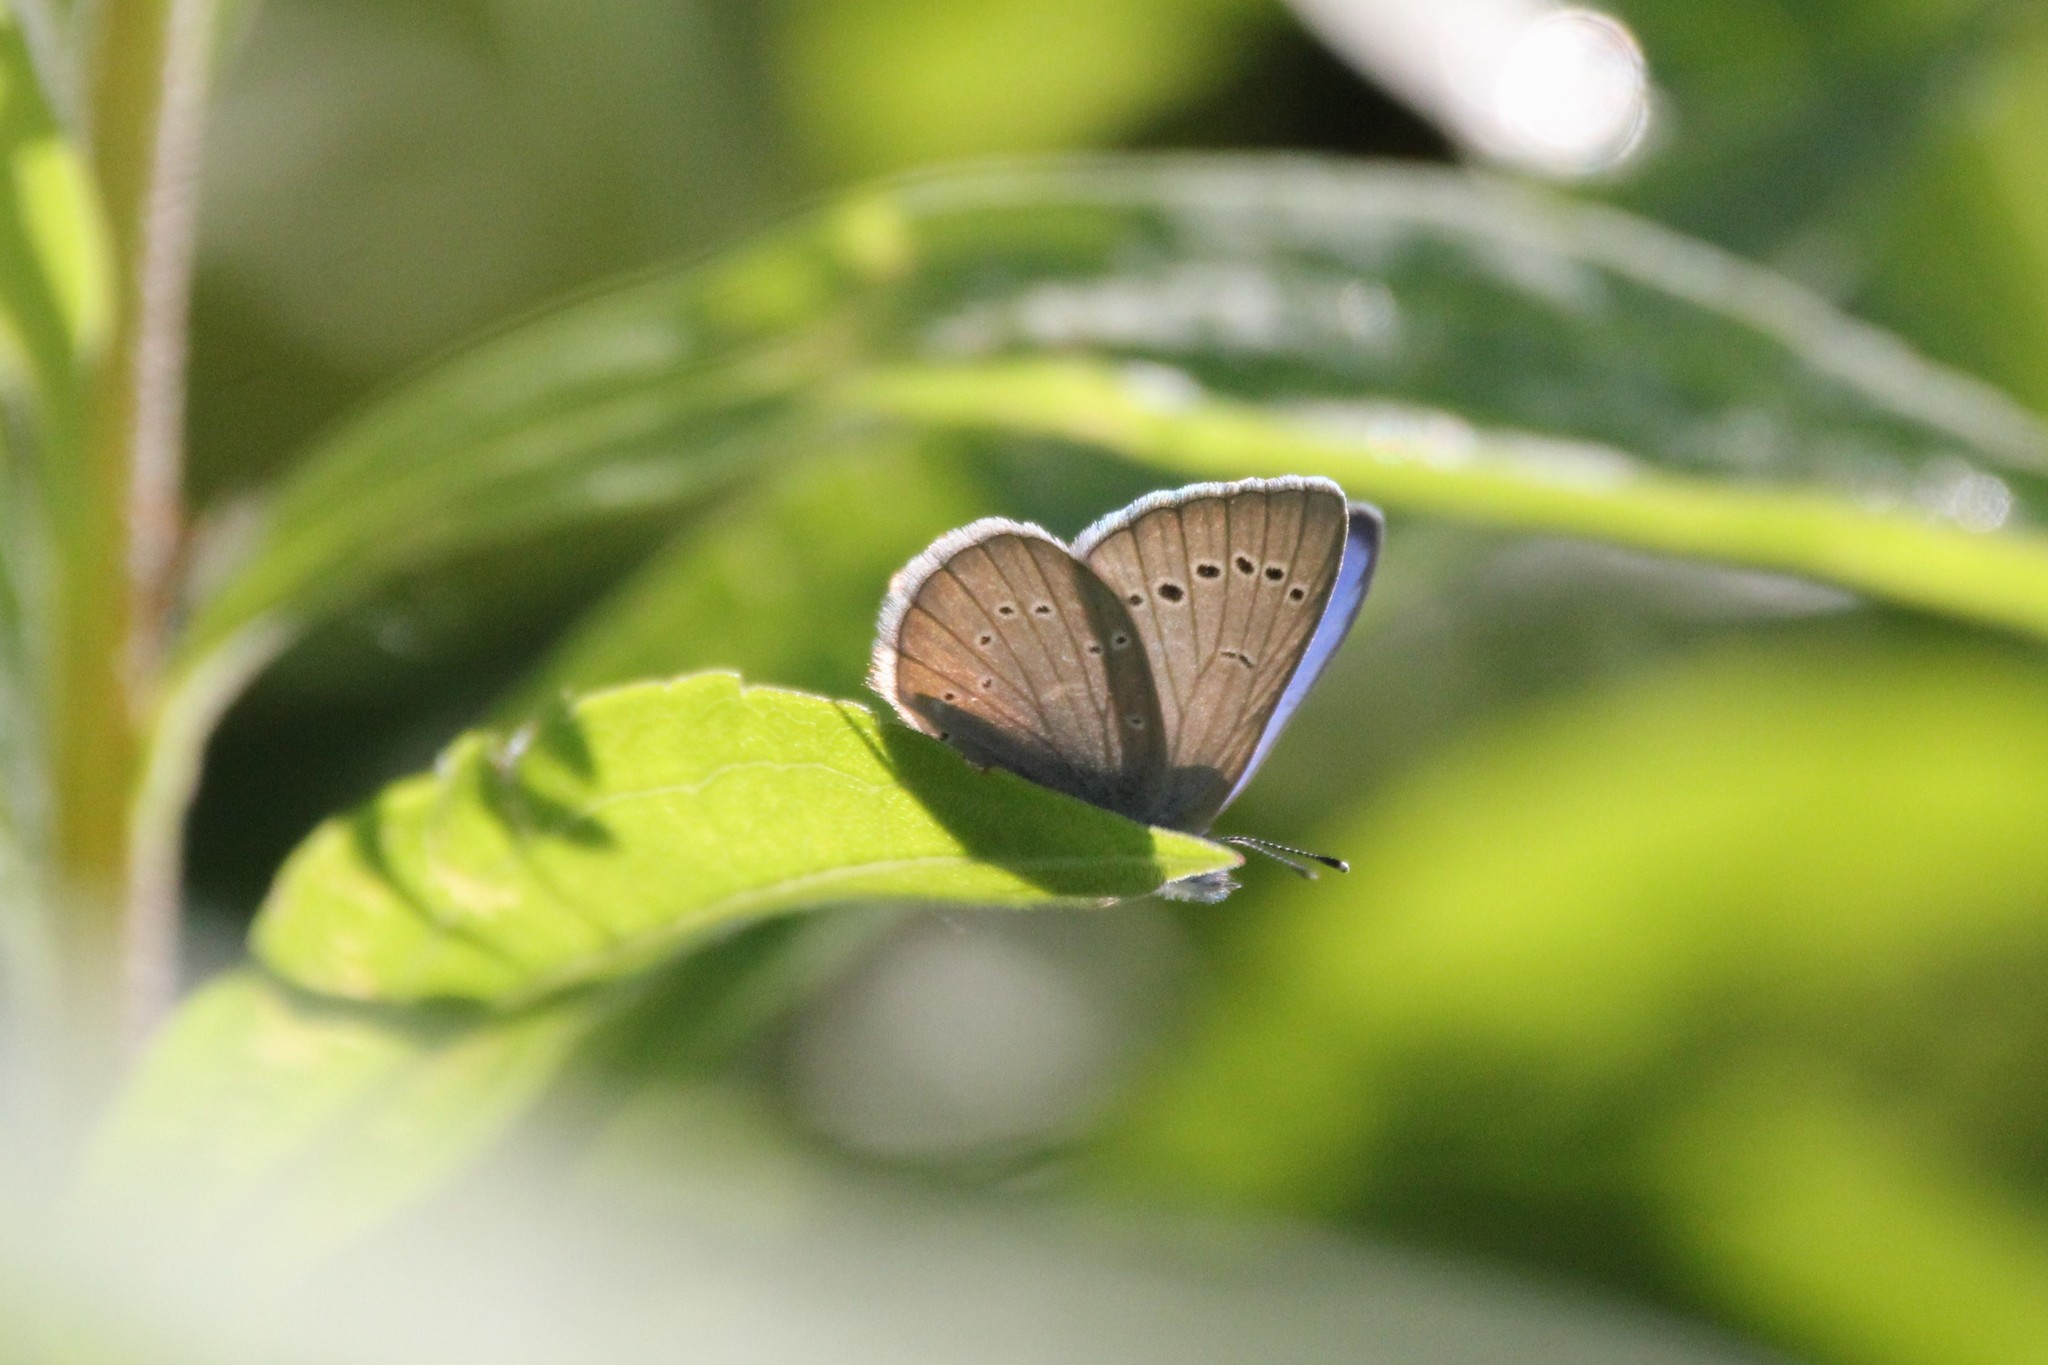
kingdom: Animalia
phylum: Arthropoda
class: Insecta
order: Lepidoptera
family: Lycaenidae
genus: Glaucopsyche
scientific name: Glaucopsyche lygdamus
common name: Silvery blue
